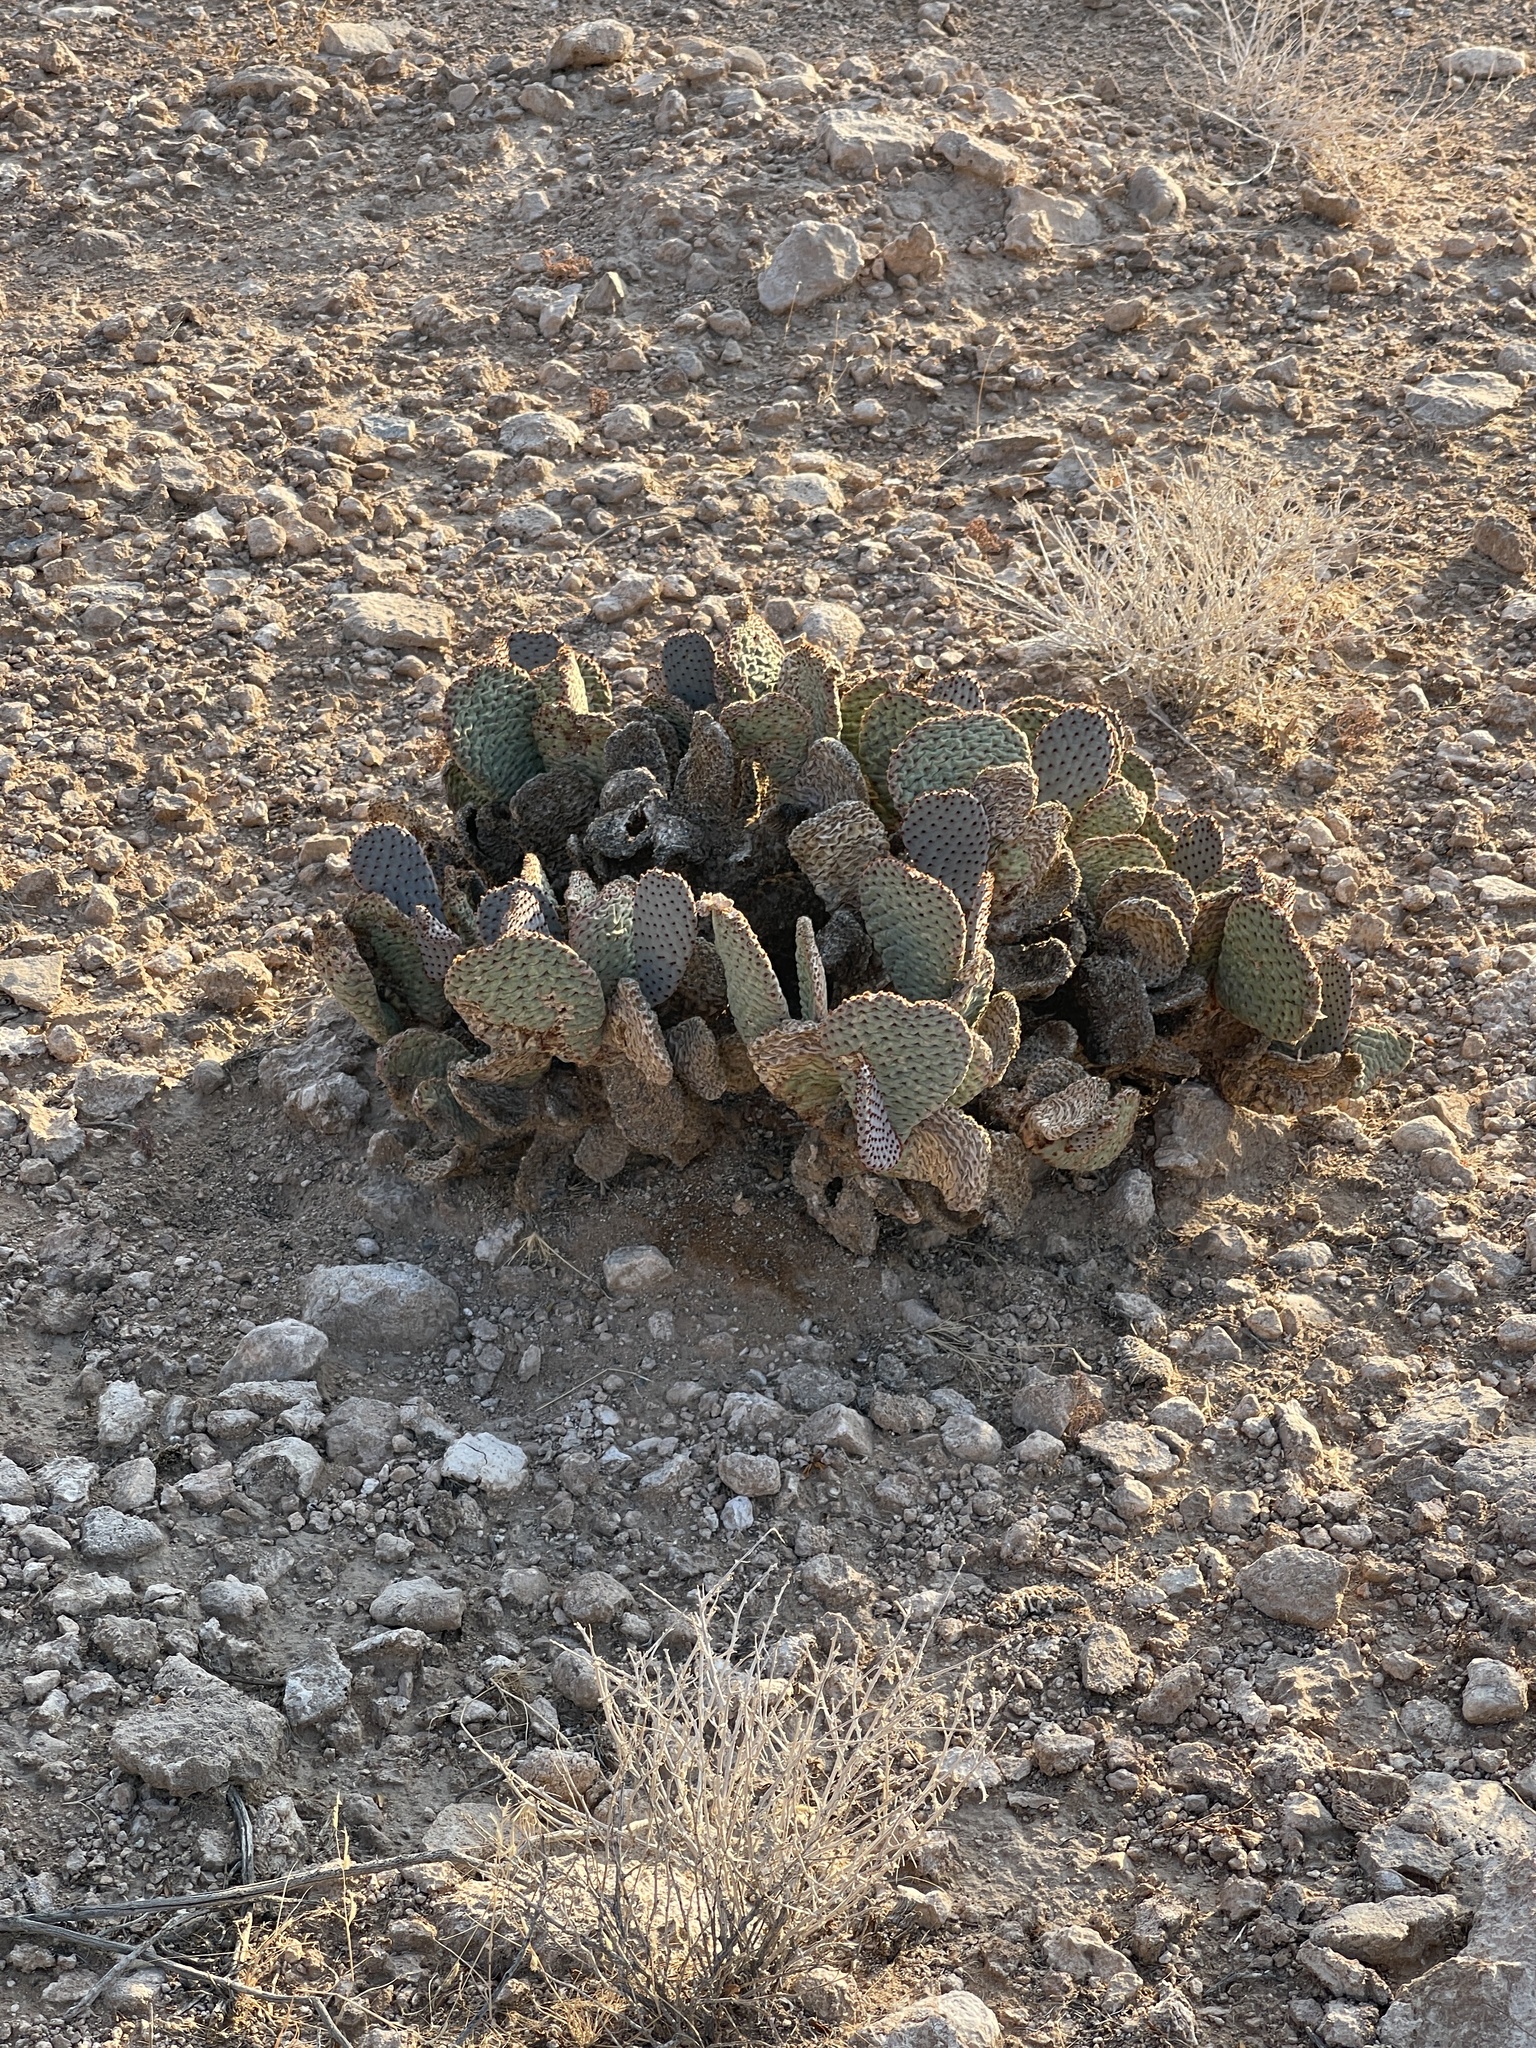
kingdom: Plantae
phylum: Tracheophyta
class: Magnoliopsida
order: Caryophyllales
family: Cactaceae
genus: Opuntia
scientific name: Opuntia basilaris
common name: Beavertail prickly-pear
